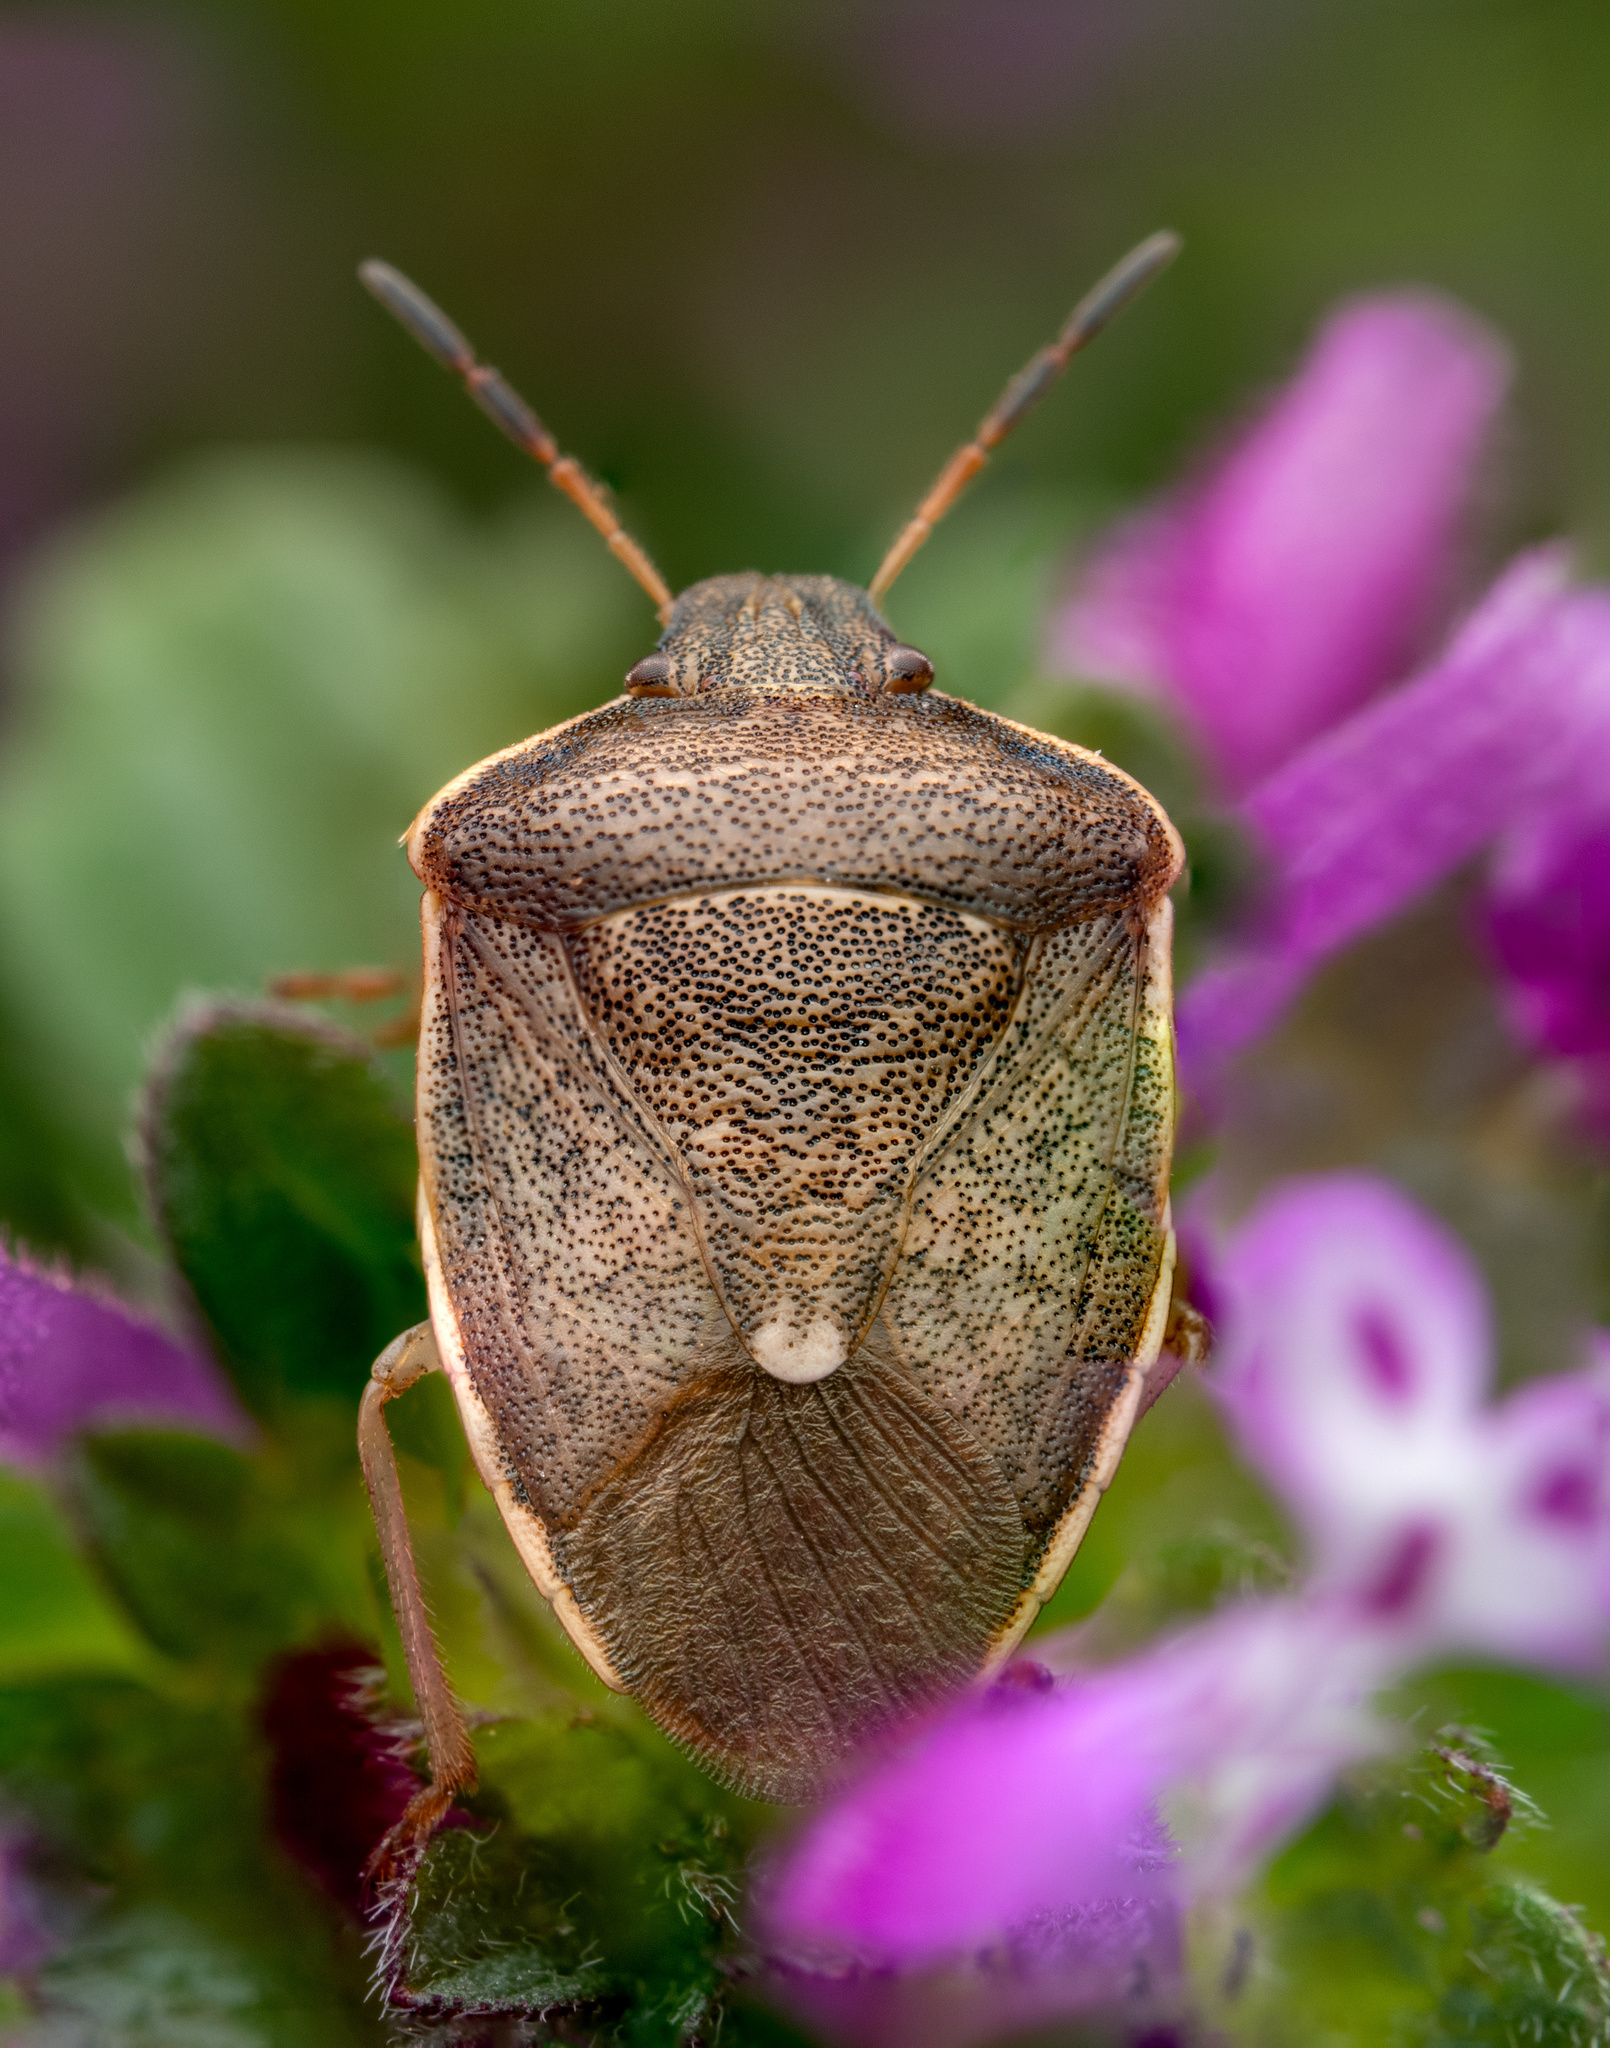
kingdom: Animalia
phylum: Arthropoda
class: Insecta
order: Hemiptera
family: Pentatomidae
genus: Holcostethus
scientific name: Holcostethus limbolarius
